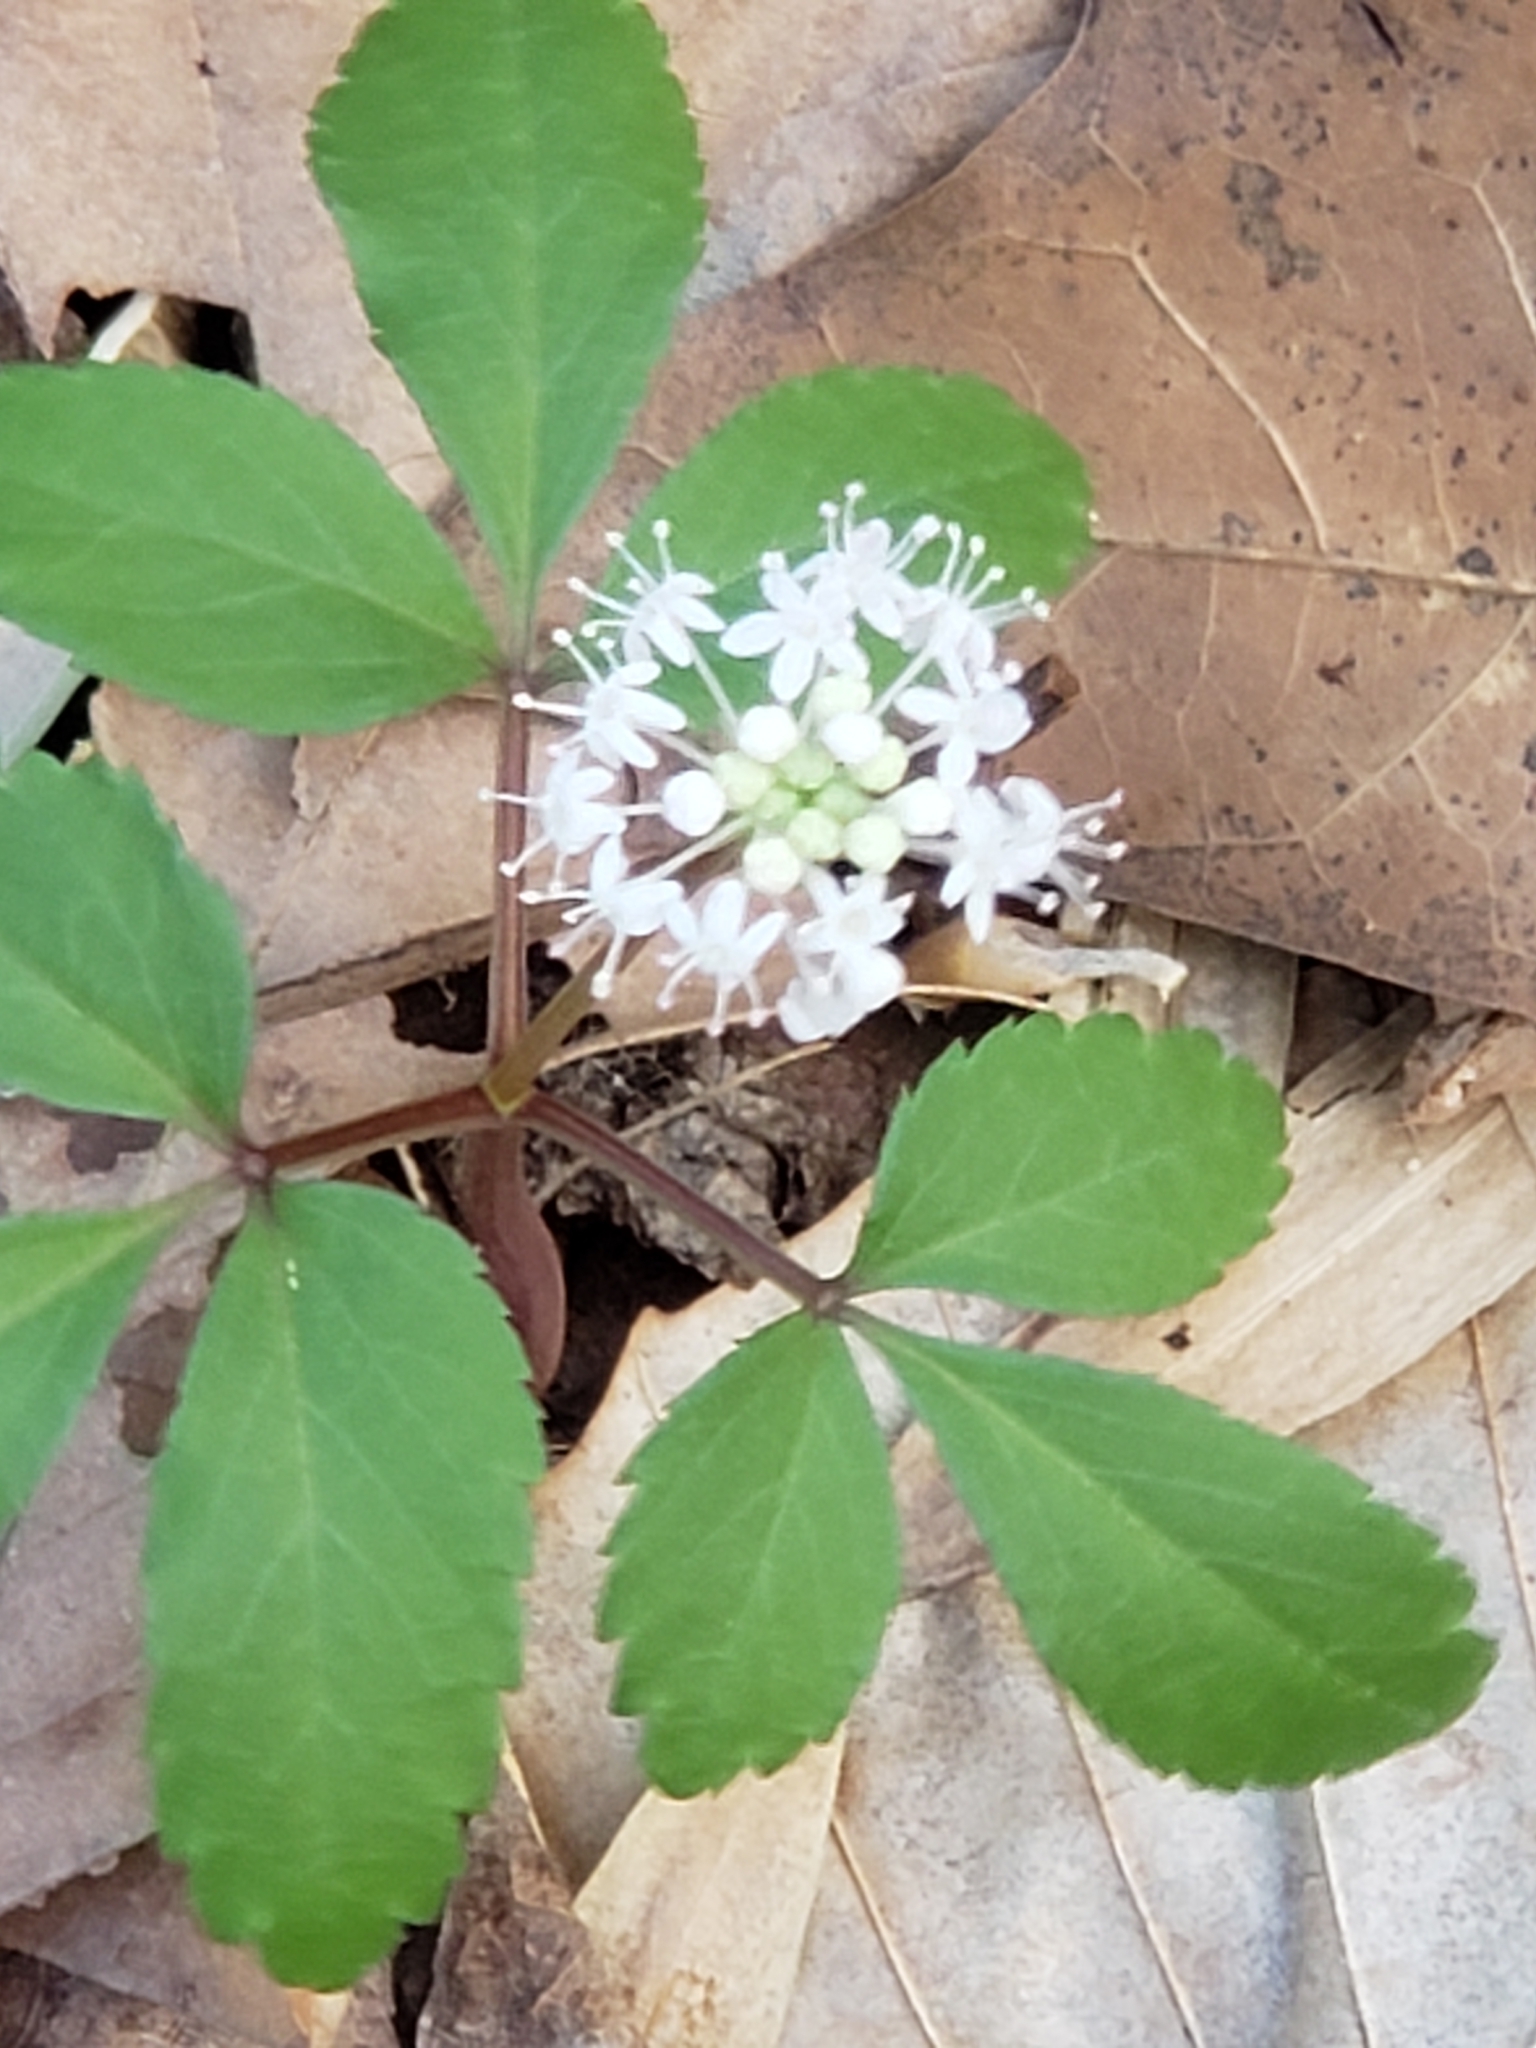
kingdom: Plantae
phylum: Tracheophyta
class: Magnoliopsida
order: Apiales
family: Araliaceae
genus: Panax
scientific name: Panax trifolius
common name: Dwarf ginseng
